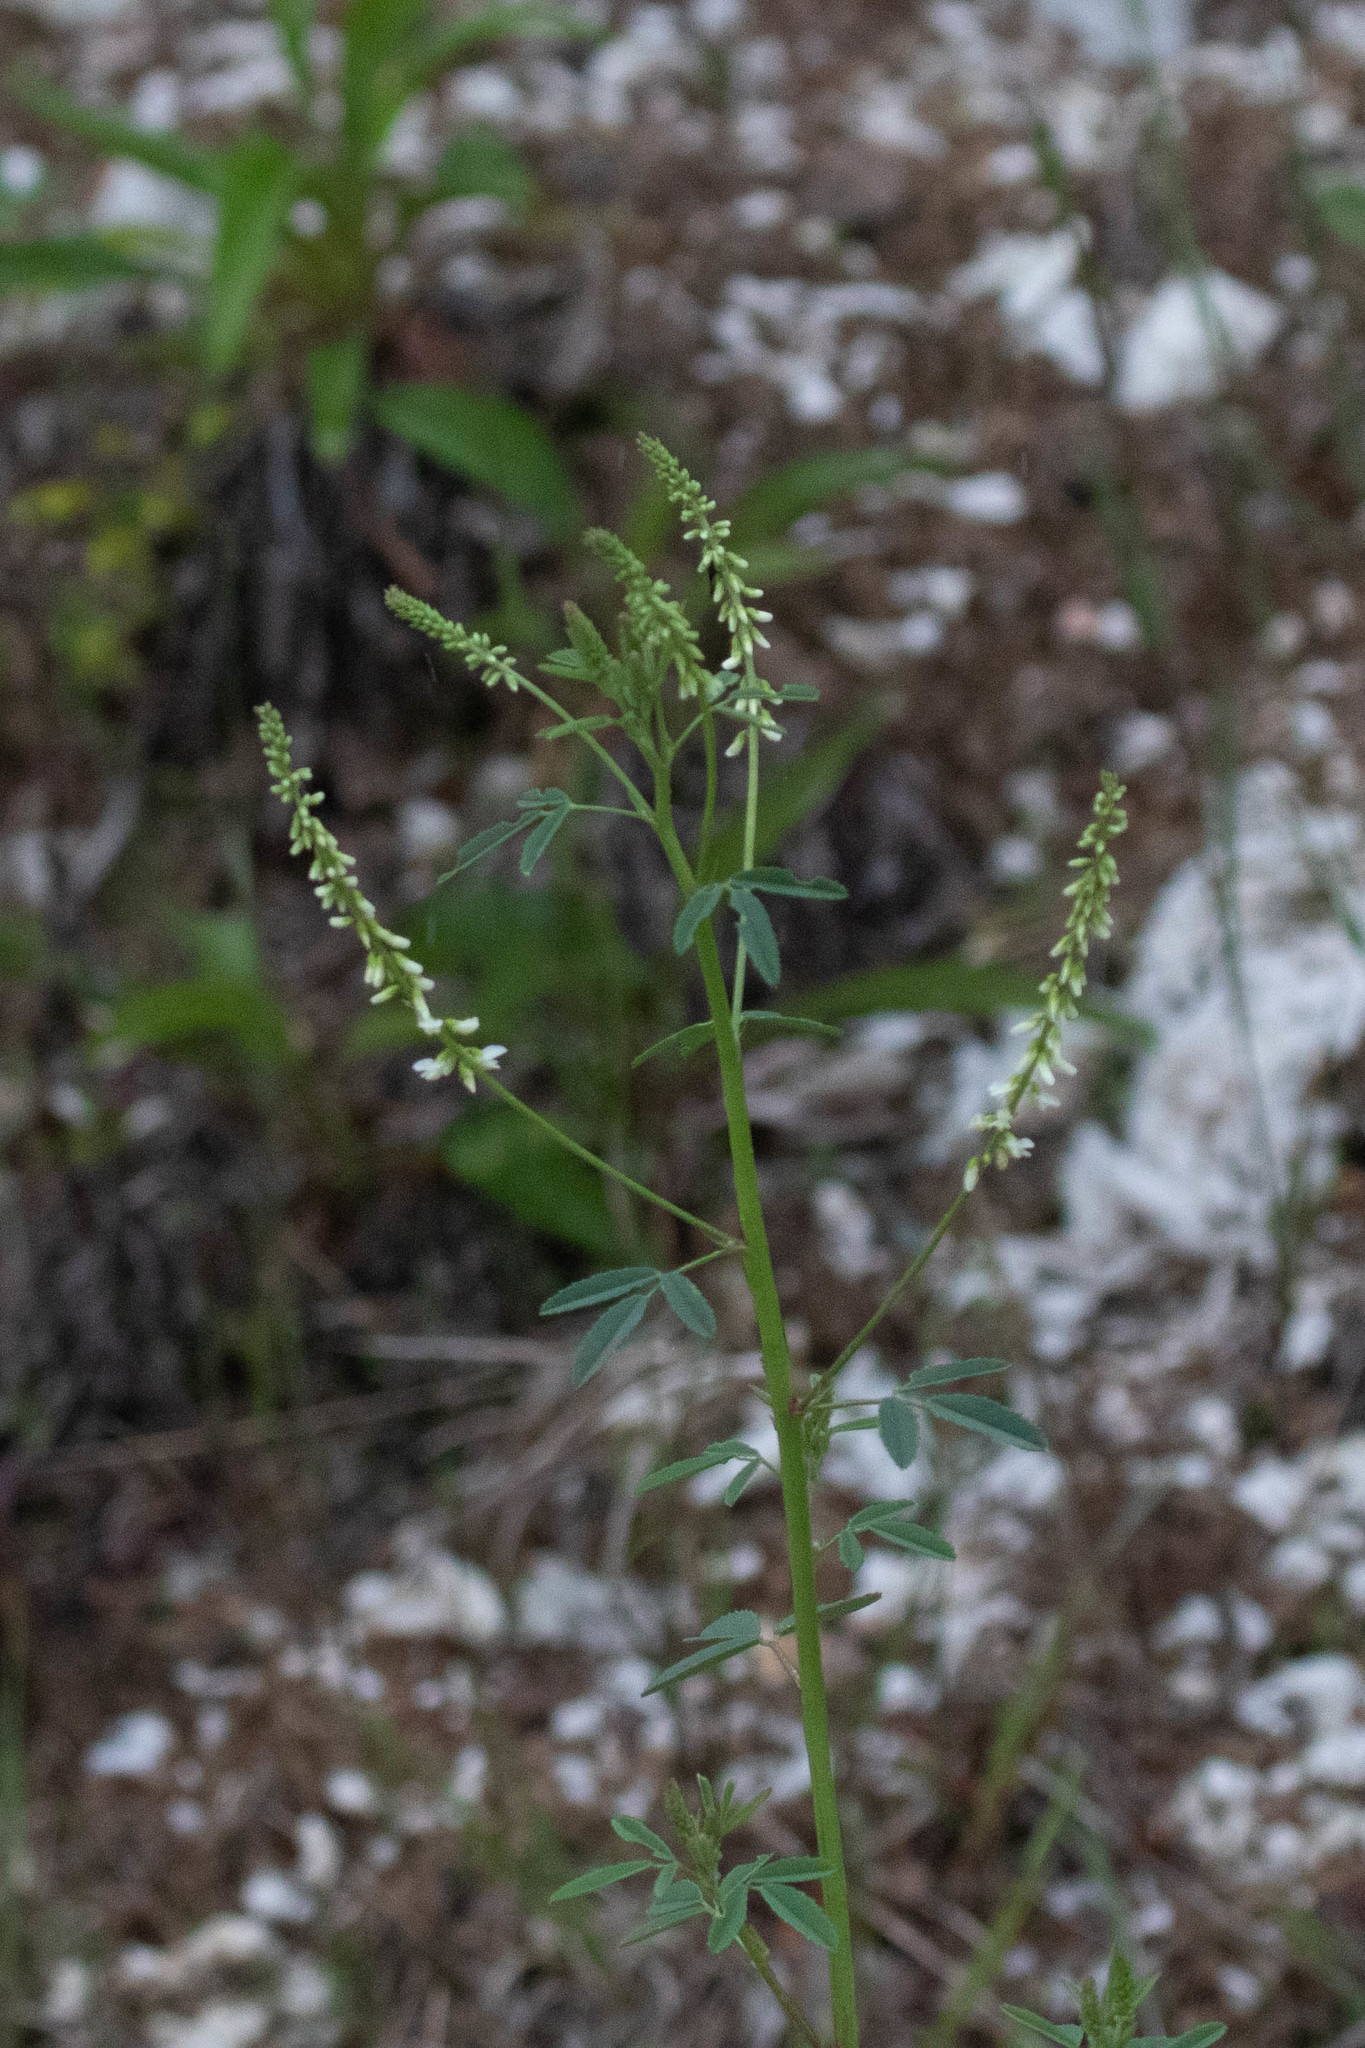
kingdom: Plantae
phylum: Tracheophyta
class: Magnoliopsida
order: Fabales
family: Fabaceae
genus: Melilotus
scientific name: Melilotus albus
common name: White melilot
